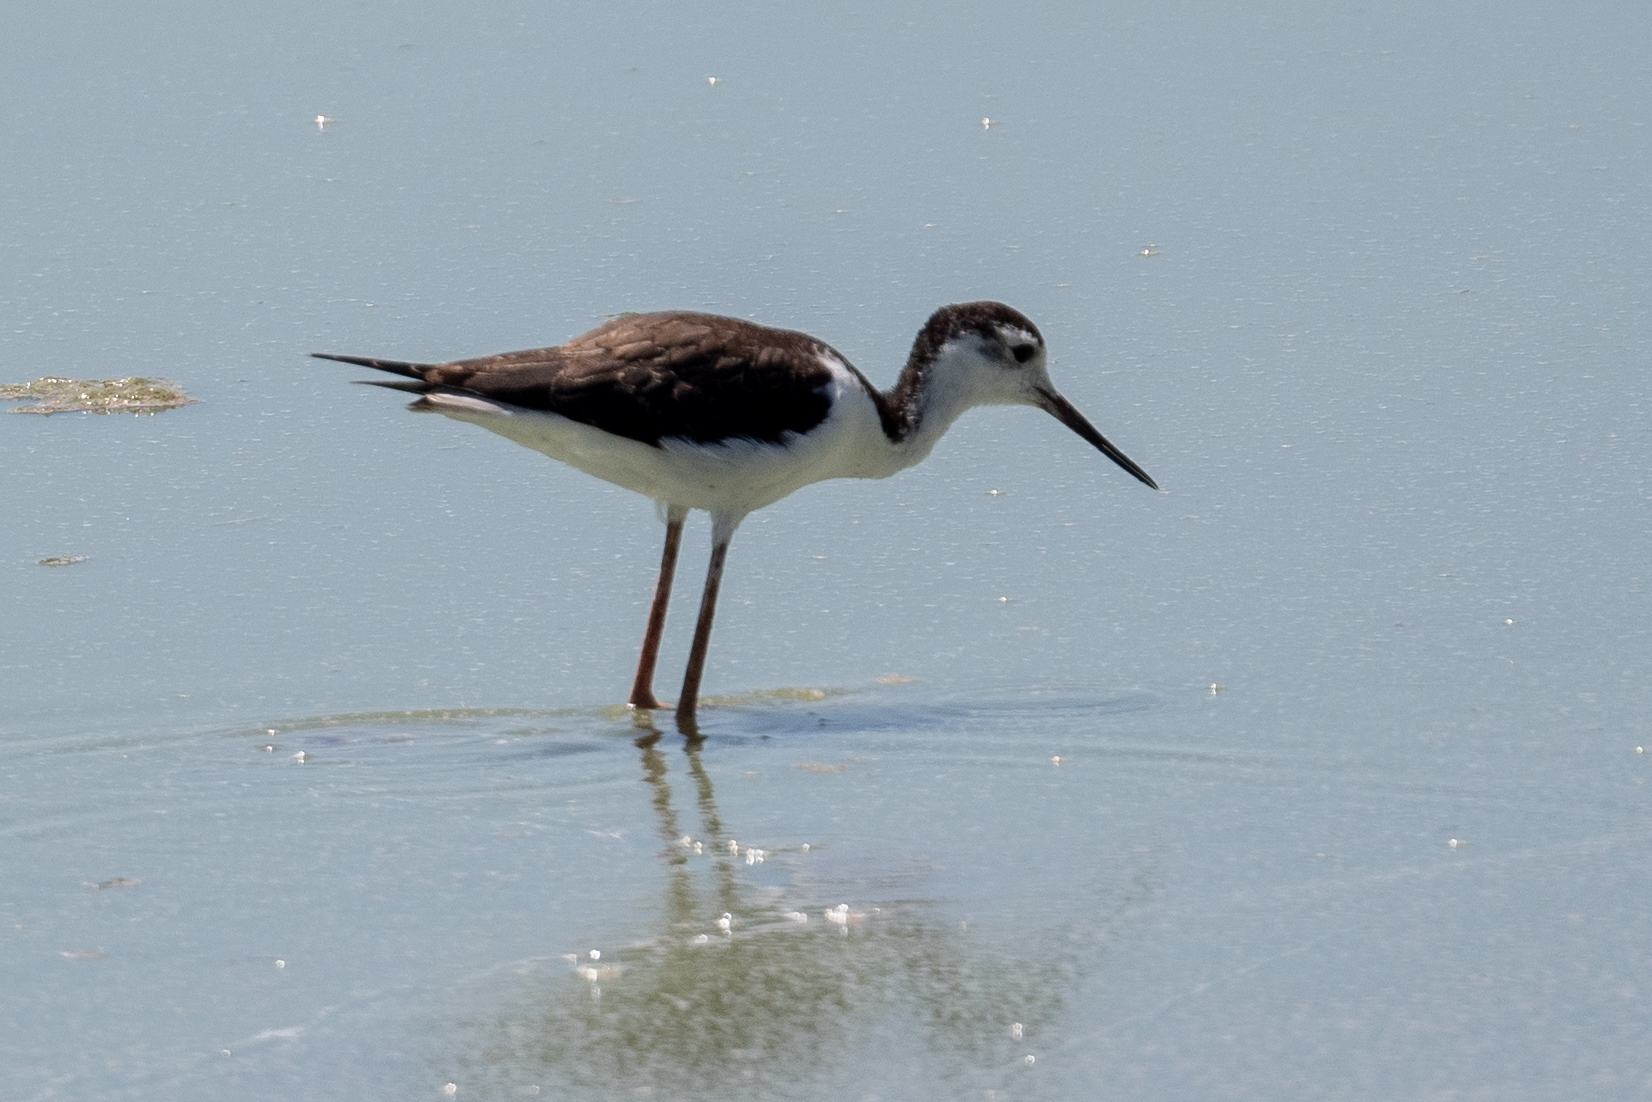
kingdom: Animalia
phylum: Chordata
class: Aves
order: Charadriiformes
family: Recurvirostridae
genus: Himantopus
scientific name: Himantopus mexicanus
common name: Black-necked stilt
